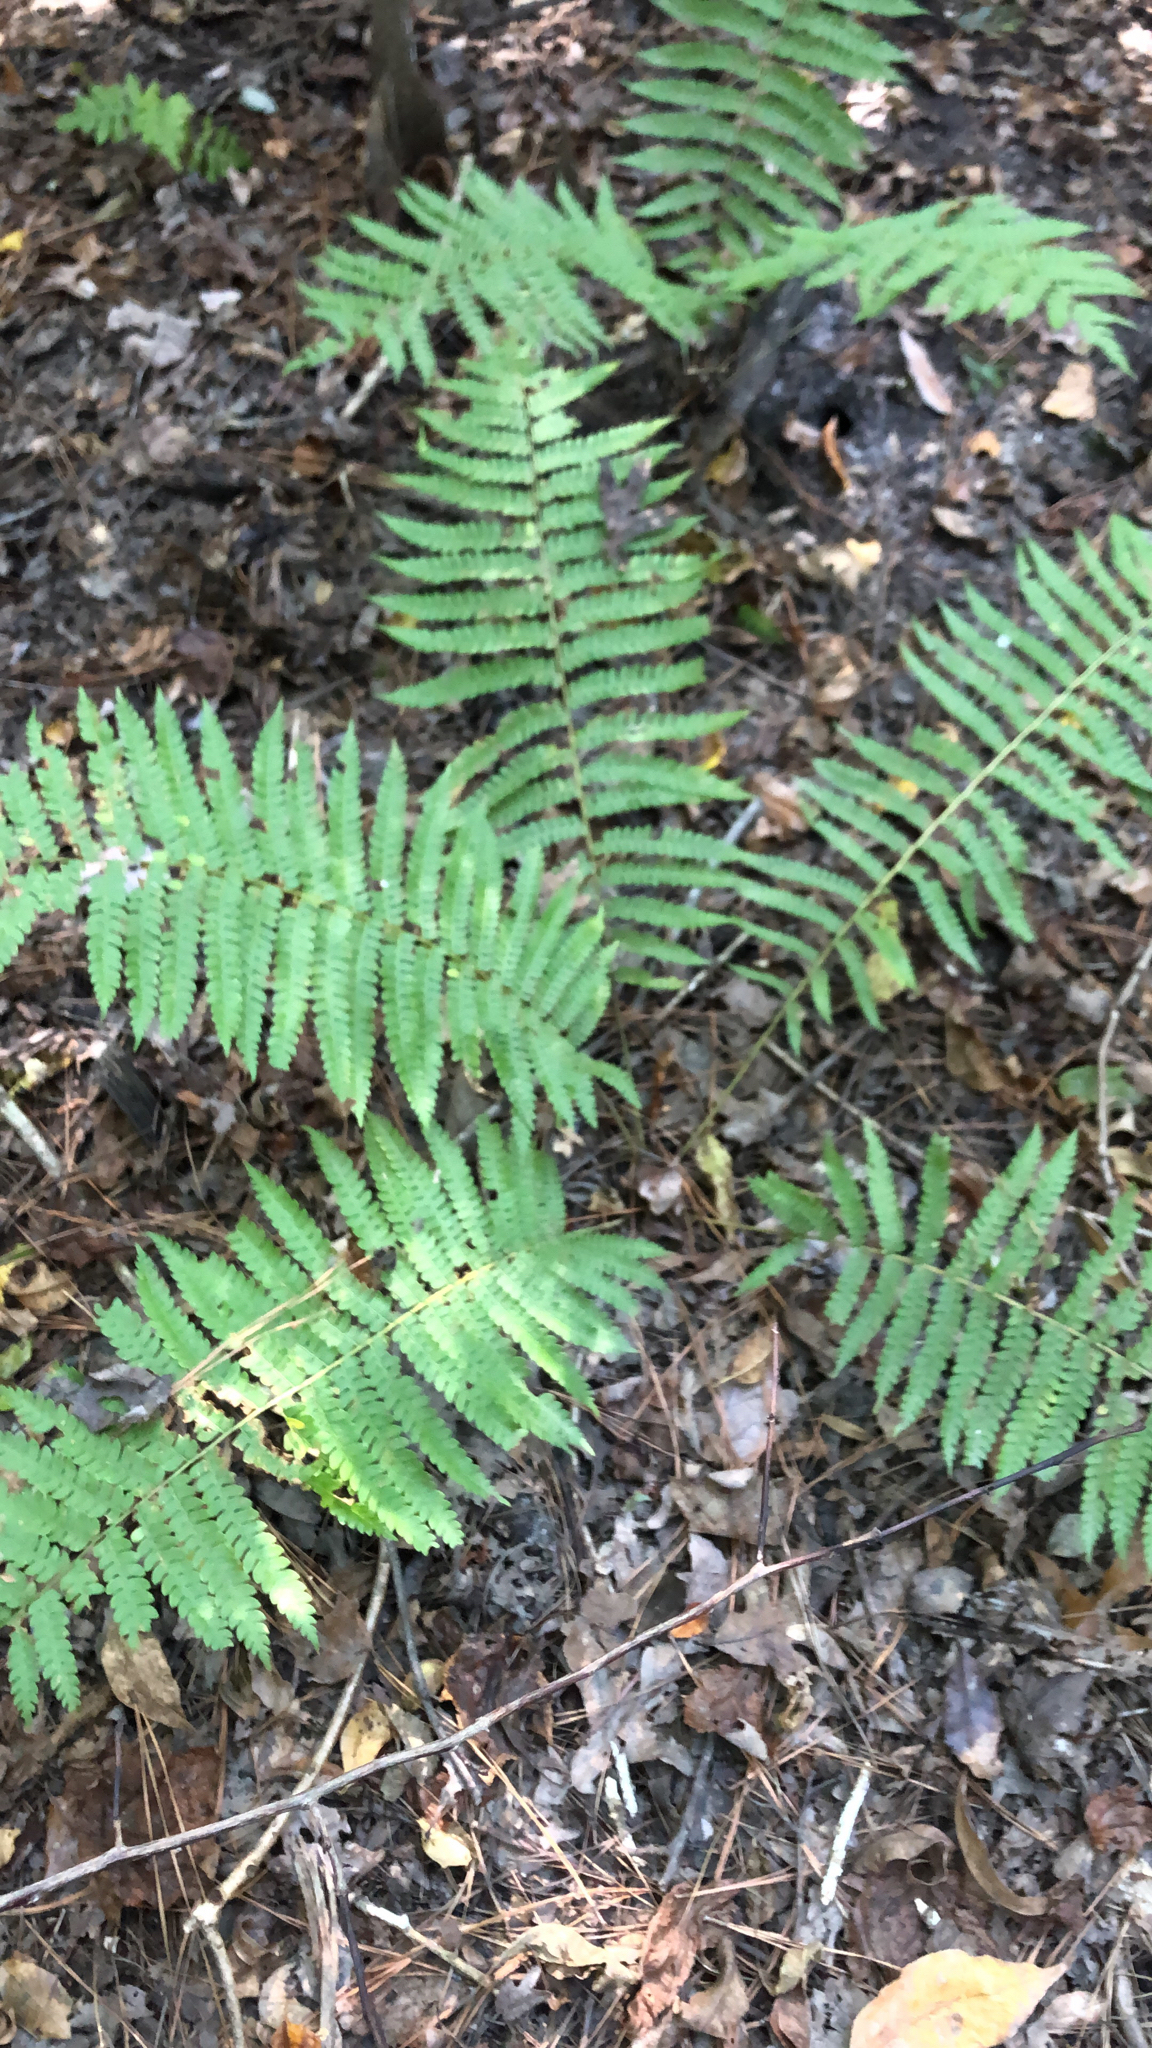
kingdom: Plantae
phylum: Tracheophyta
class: Polypodiopsida
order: Osmundales
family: Osmundaceae
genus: Osmundastrum
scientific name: Osmundastrum cinnamomeum
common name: Cinnamon fern
